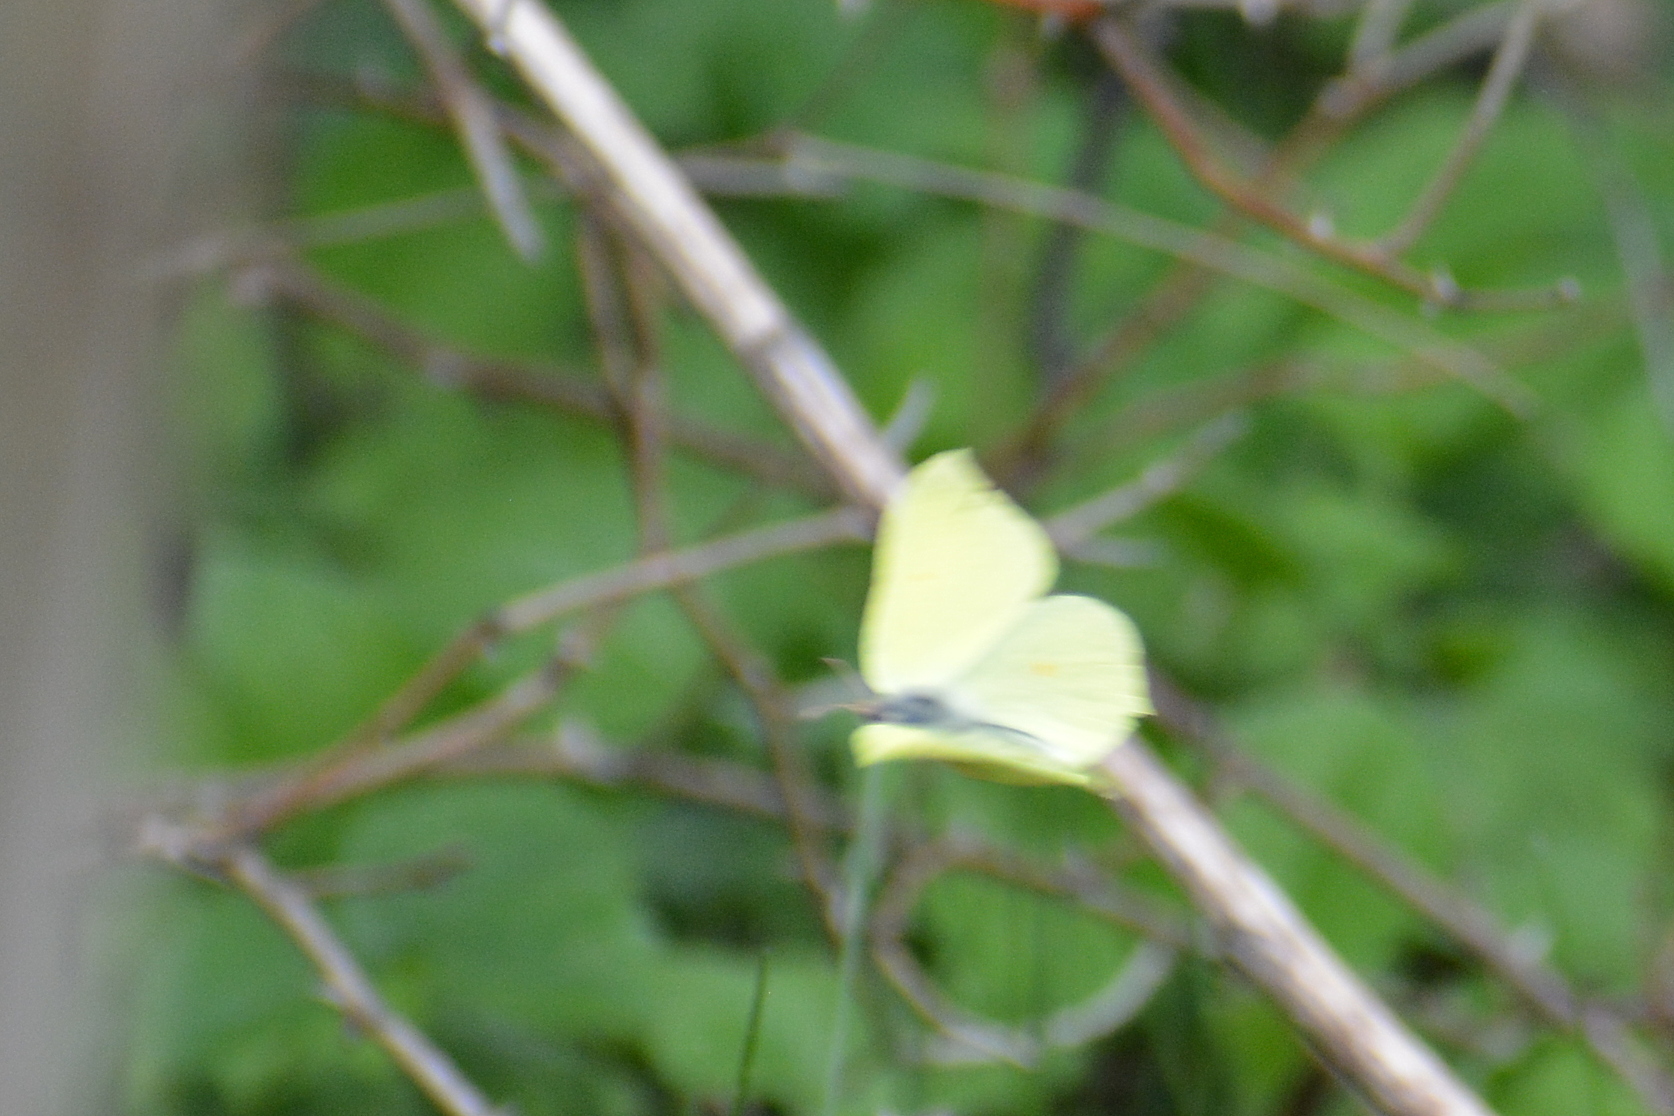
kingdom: Animalia
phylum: Arthropoda
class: Insecta
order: Lepidoptera
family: Pieridae
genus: Gonepteryx
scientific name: Gonepteryx rhamni
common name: Brimstone
